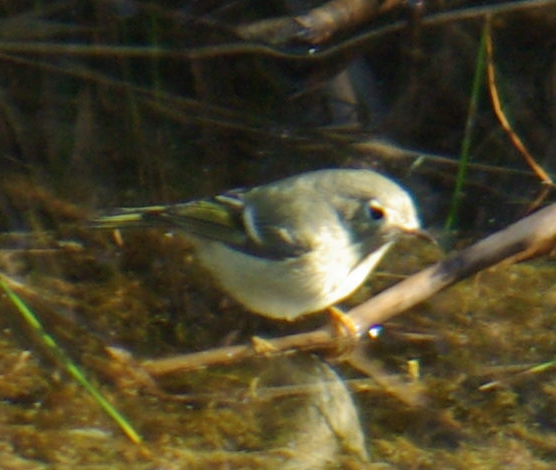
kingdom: Animalia
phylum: Chordata
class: Aves
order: Passeriformes
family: Regulidae
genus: Regulus
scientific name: Regulus calendula
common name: Ruby-crowned kinglet
